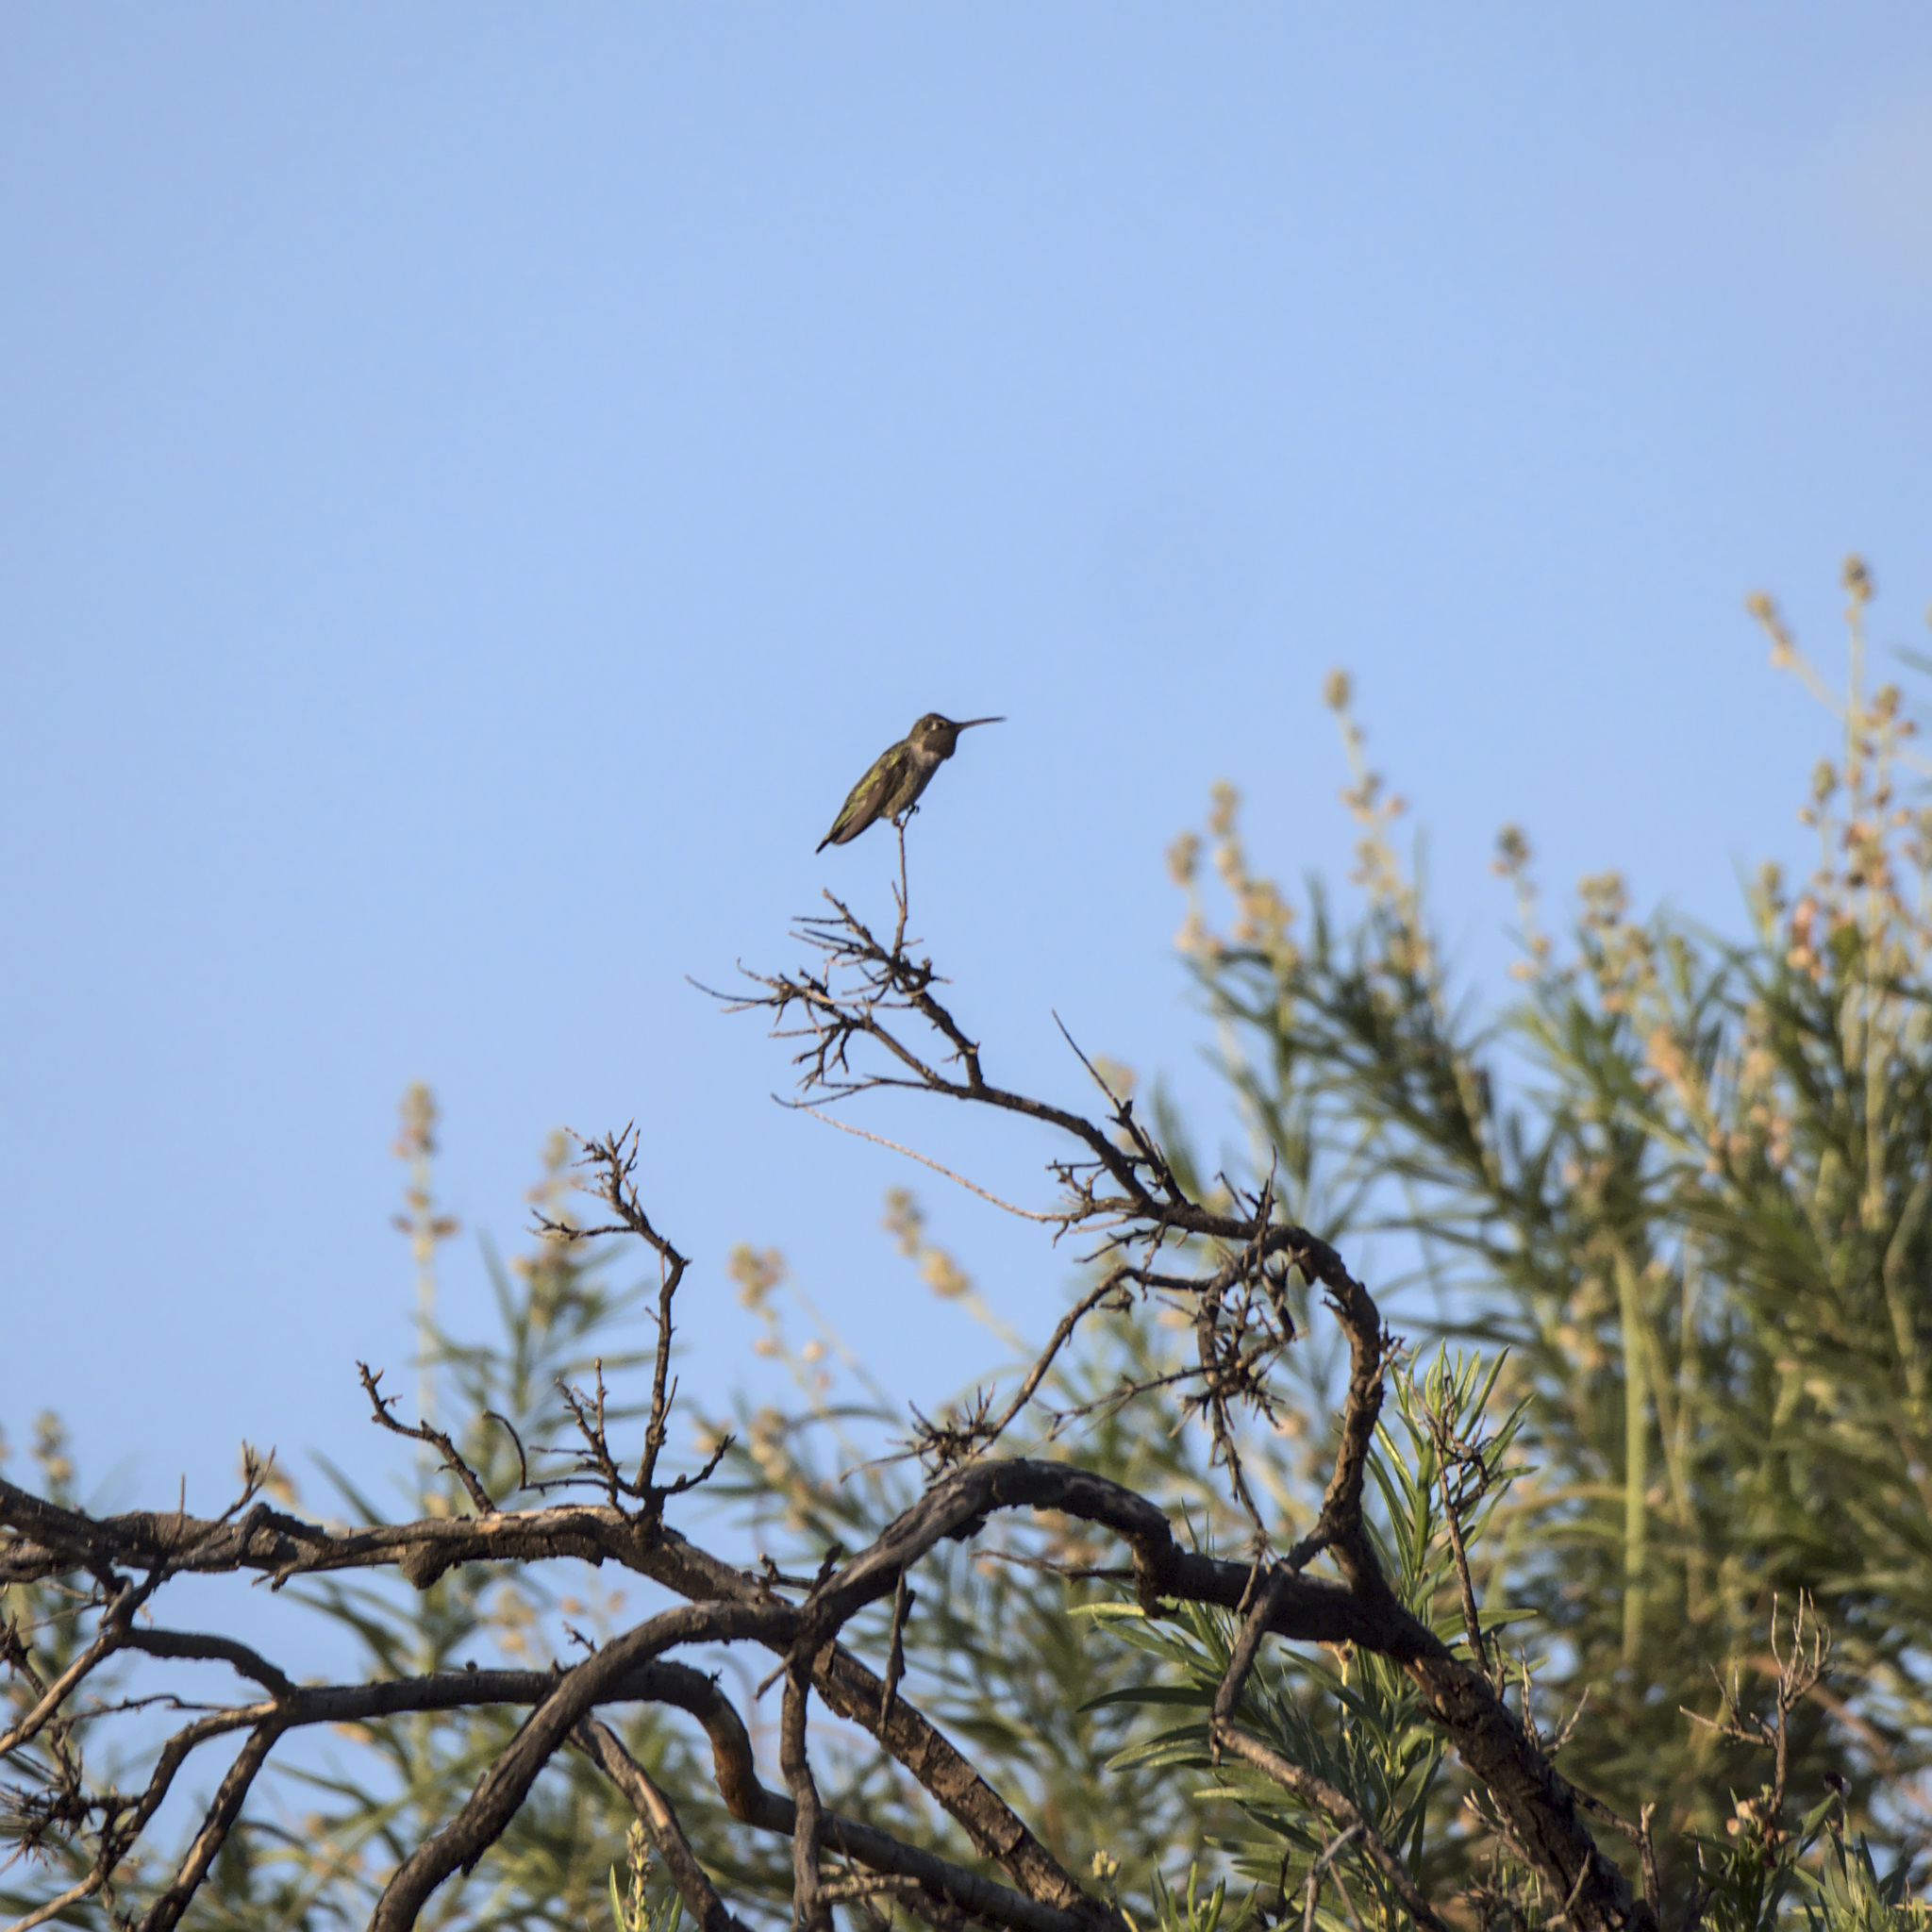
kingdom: Animalia
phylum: Chordata
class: Aves
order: Apodiformes
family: Trochilidae
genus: Calypte
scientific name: Calypte anna
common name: Anna's hummingbird
